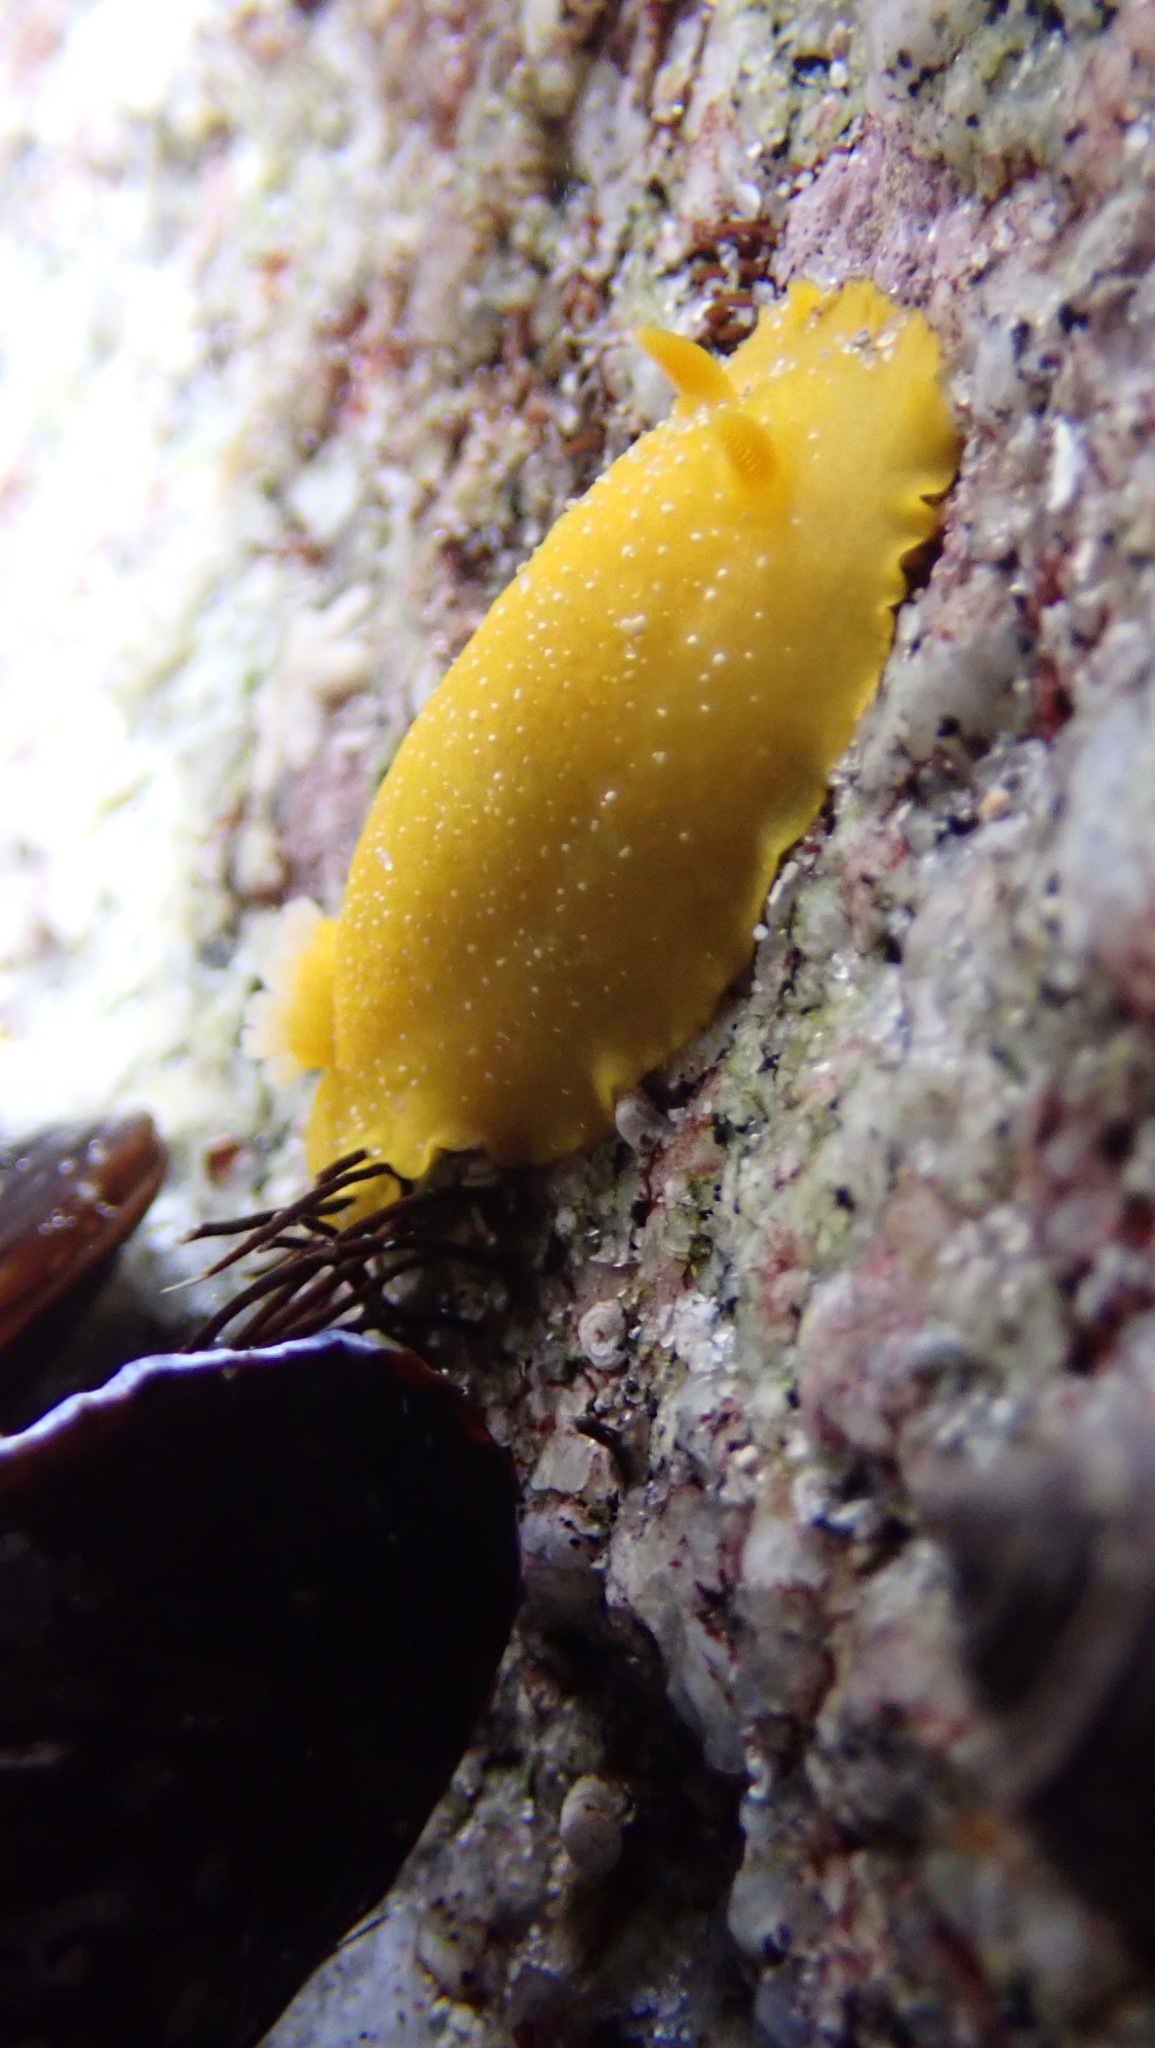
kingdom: Animalia
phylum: Mollusca
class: Gastropoda
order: Nudibranchia
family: Dendrodorididae
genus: Doriopsilla
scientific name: Doriopsilla fulva
